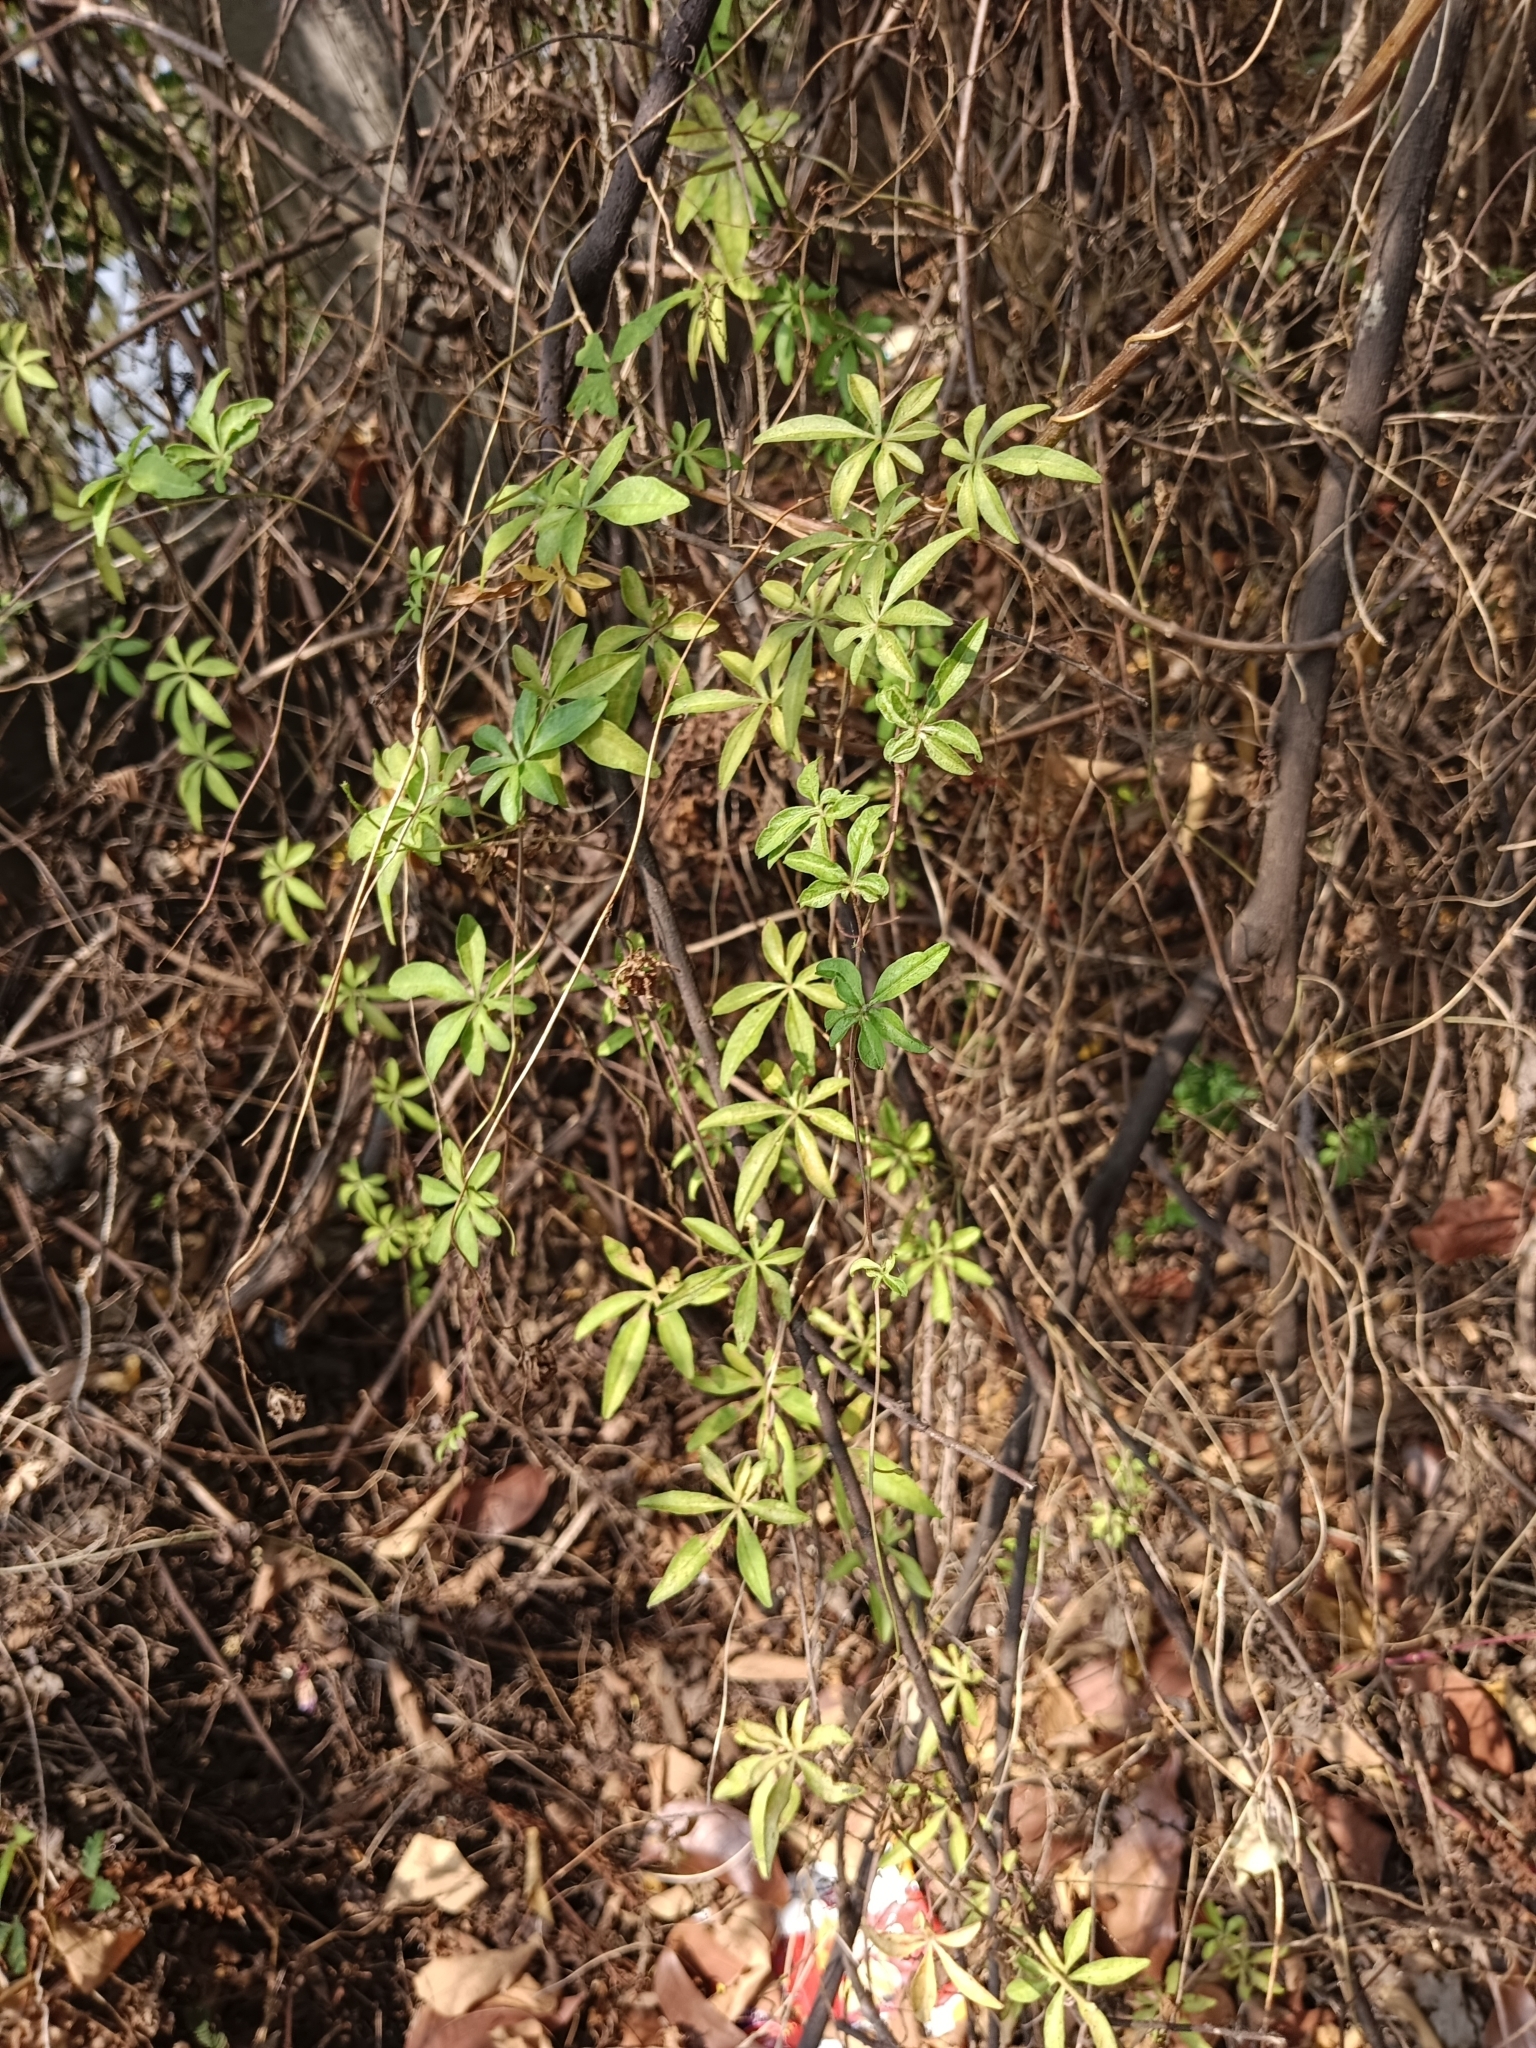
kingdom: Plantae
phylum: Tracheophyta
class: Magnoliopsida
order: Solanales
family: Convolvulaceae
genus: Ipomoea
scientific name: Ipomoea cairica
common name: Mile a minute vine
